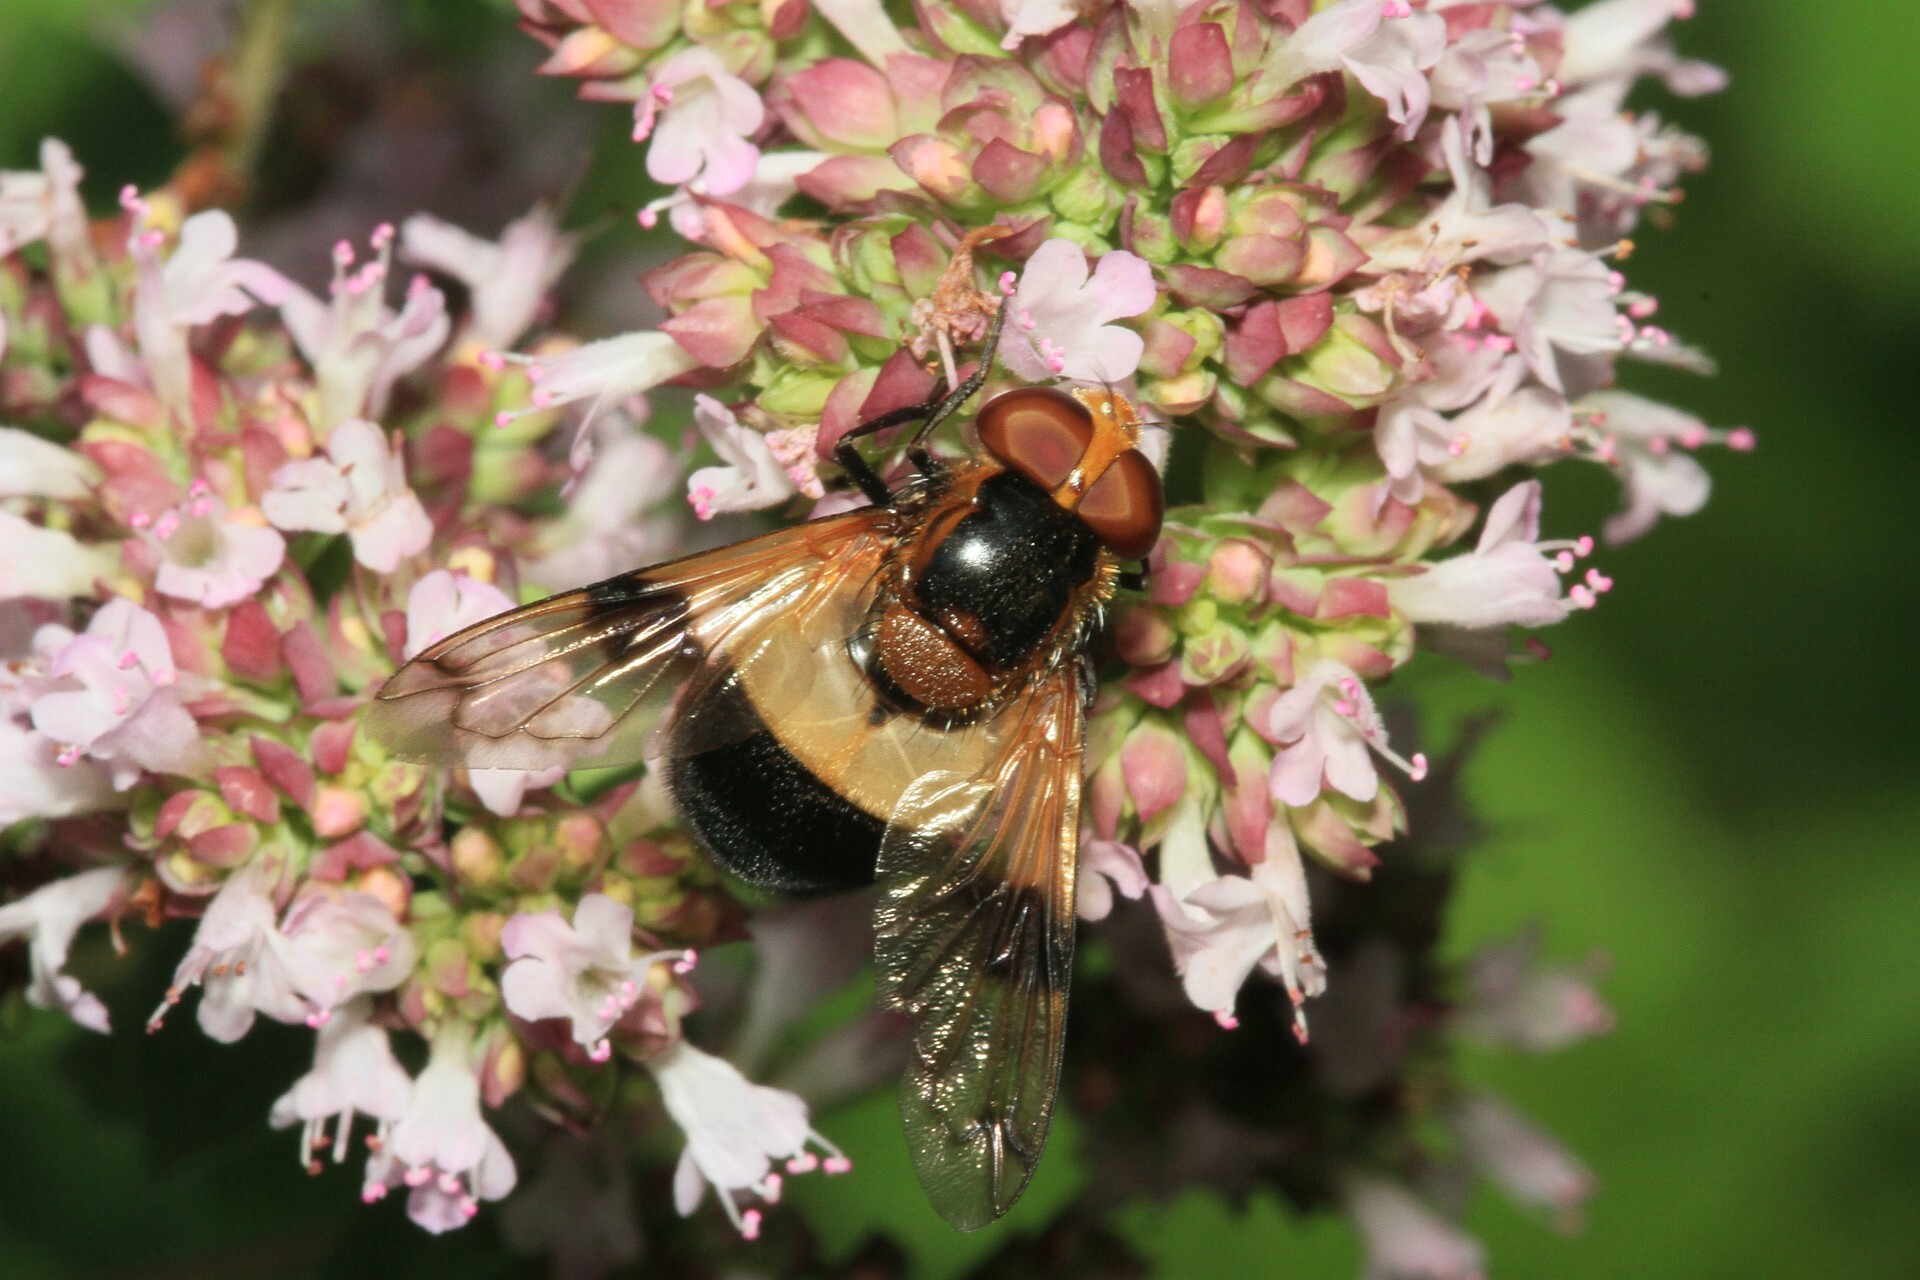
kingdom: Animalia
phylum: Arthropoda
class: Insecta
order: Diptera
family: Syrphidae
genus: Volucella
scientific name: Volucella pellucens
